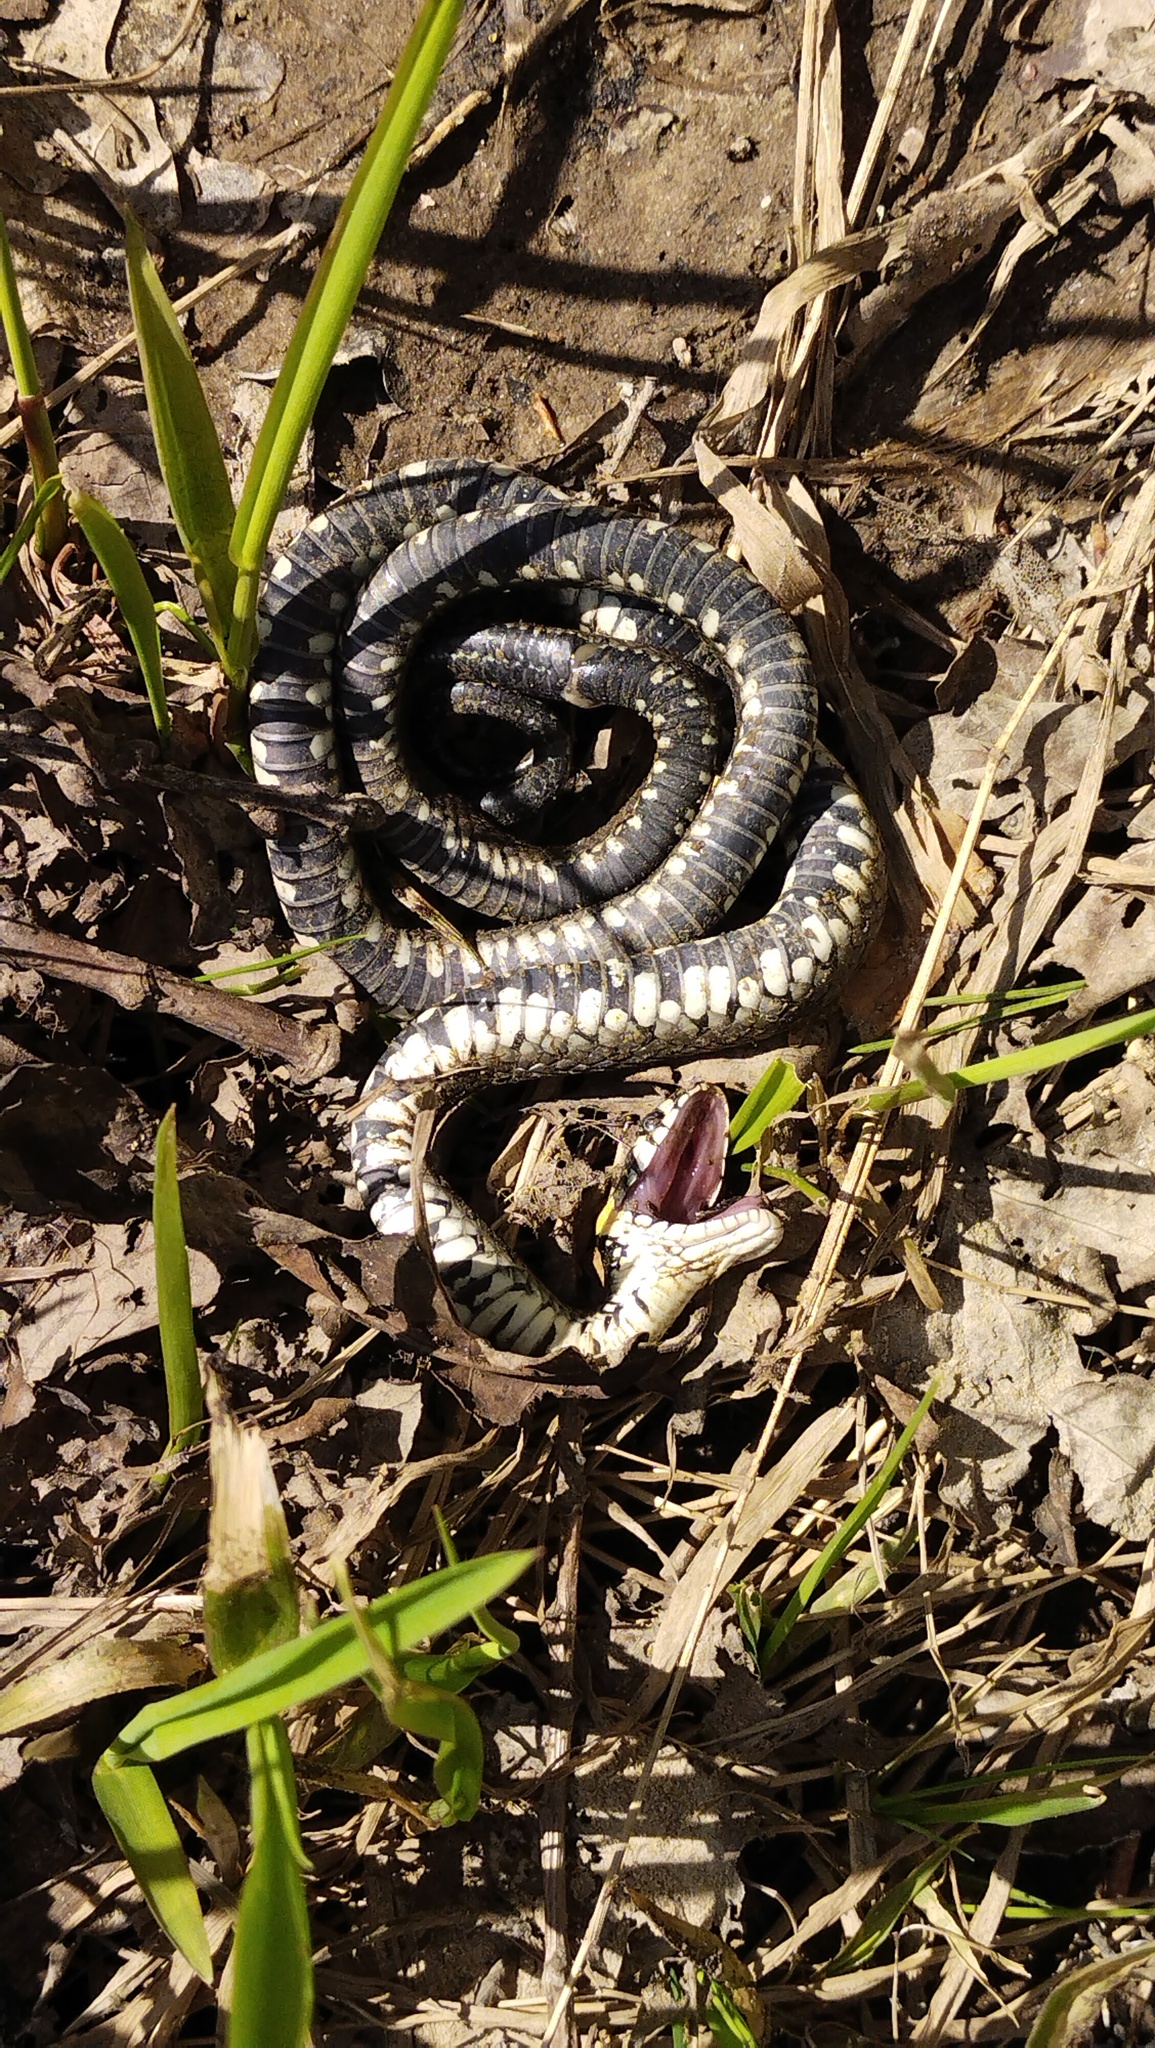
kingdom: Animalia
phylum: Chordata
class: Squamata
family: Colubridae
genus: Natrix
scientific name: Natrix natrix
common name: Grass snake
